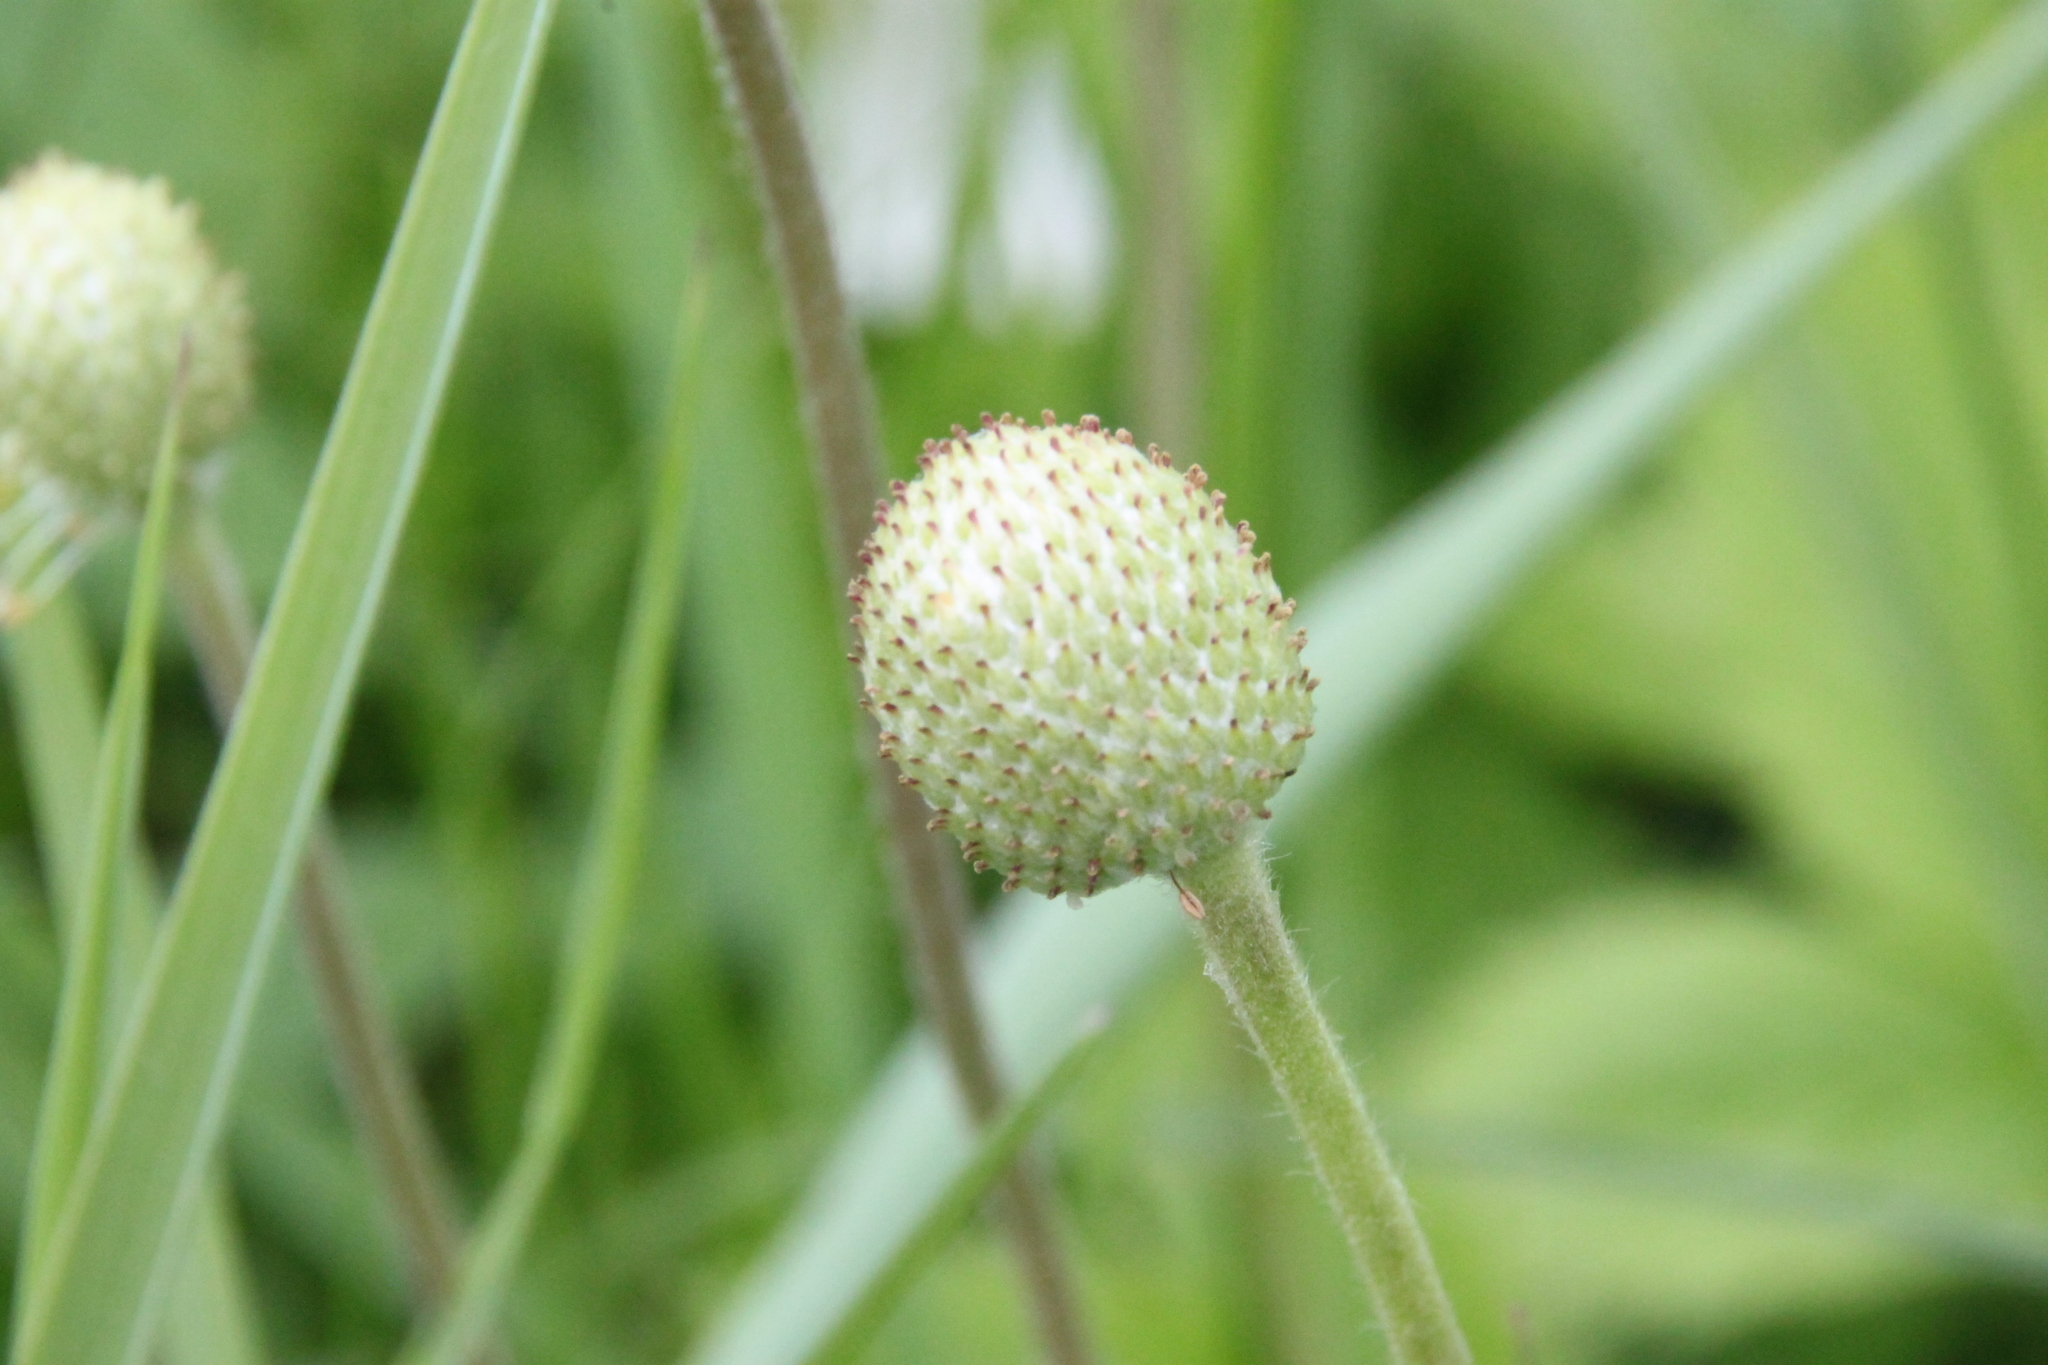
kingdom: Plantae
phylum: Tracheophyta
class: Magnoliopsida
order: Ranunculales
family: Ranunculaceae
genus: Anemone
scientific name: Anemone sylvestris
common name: Snowdrop anemone
